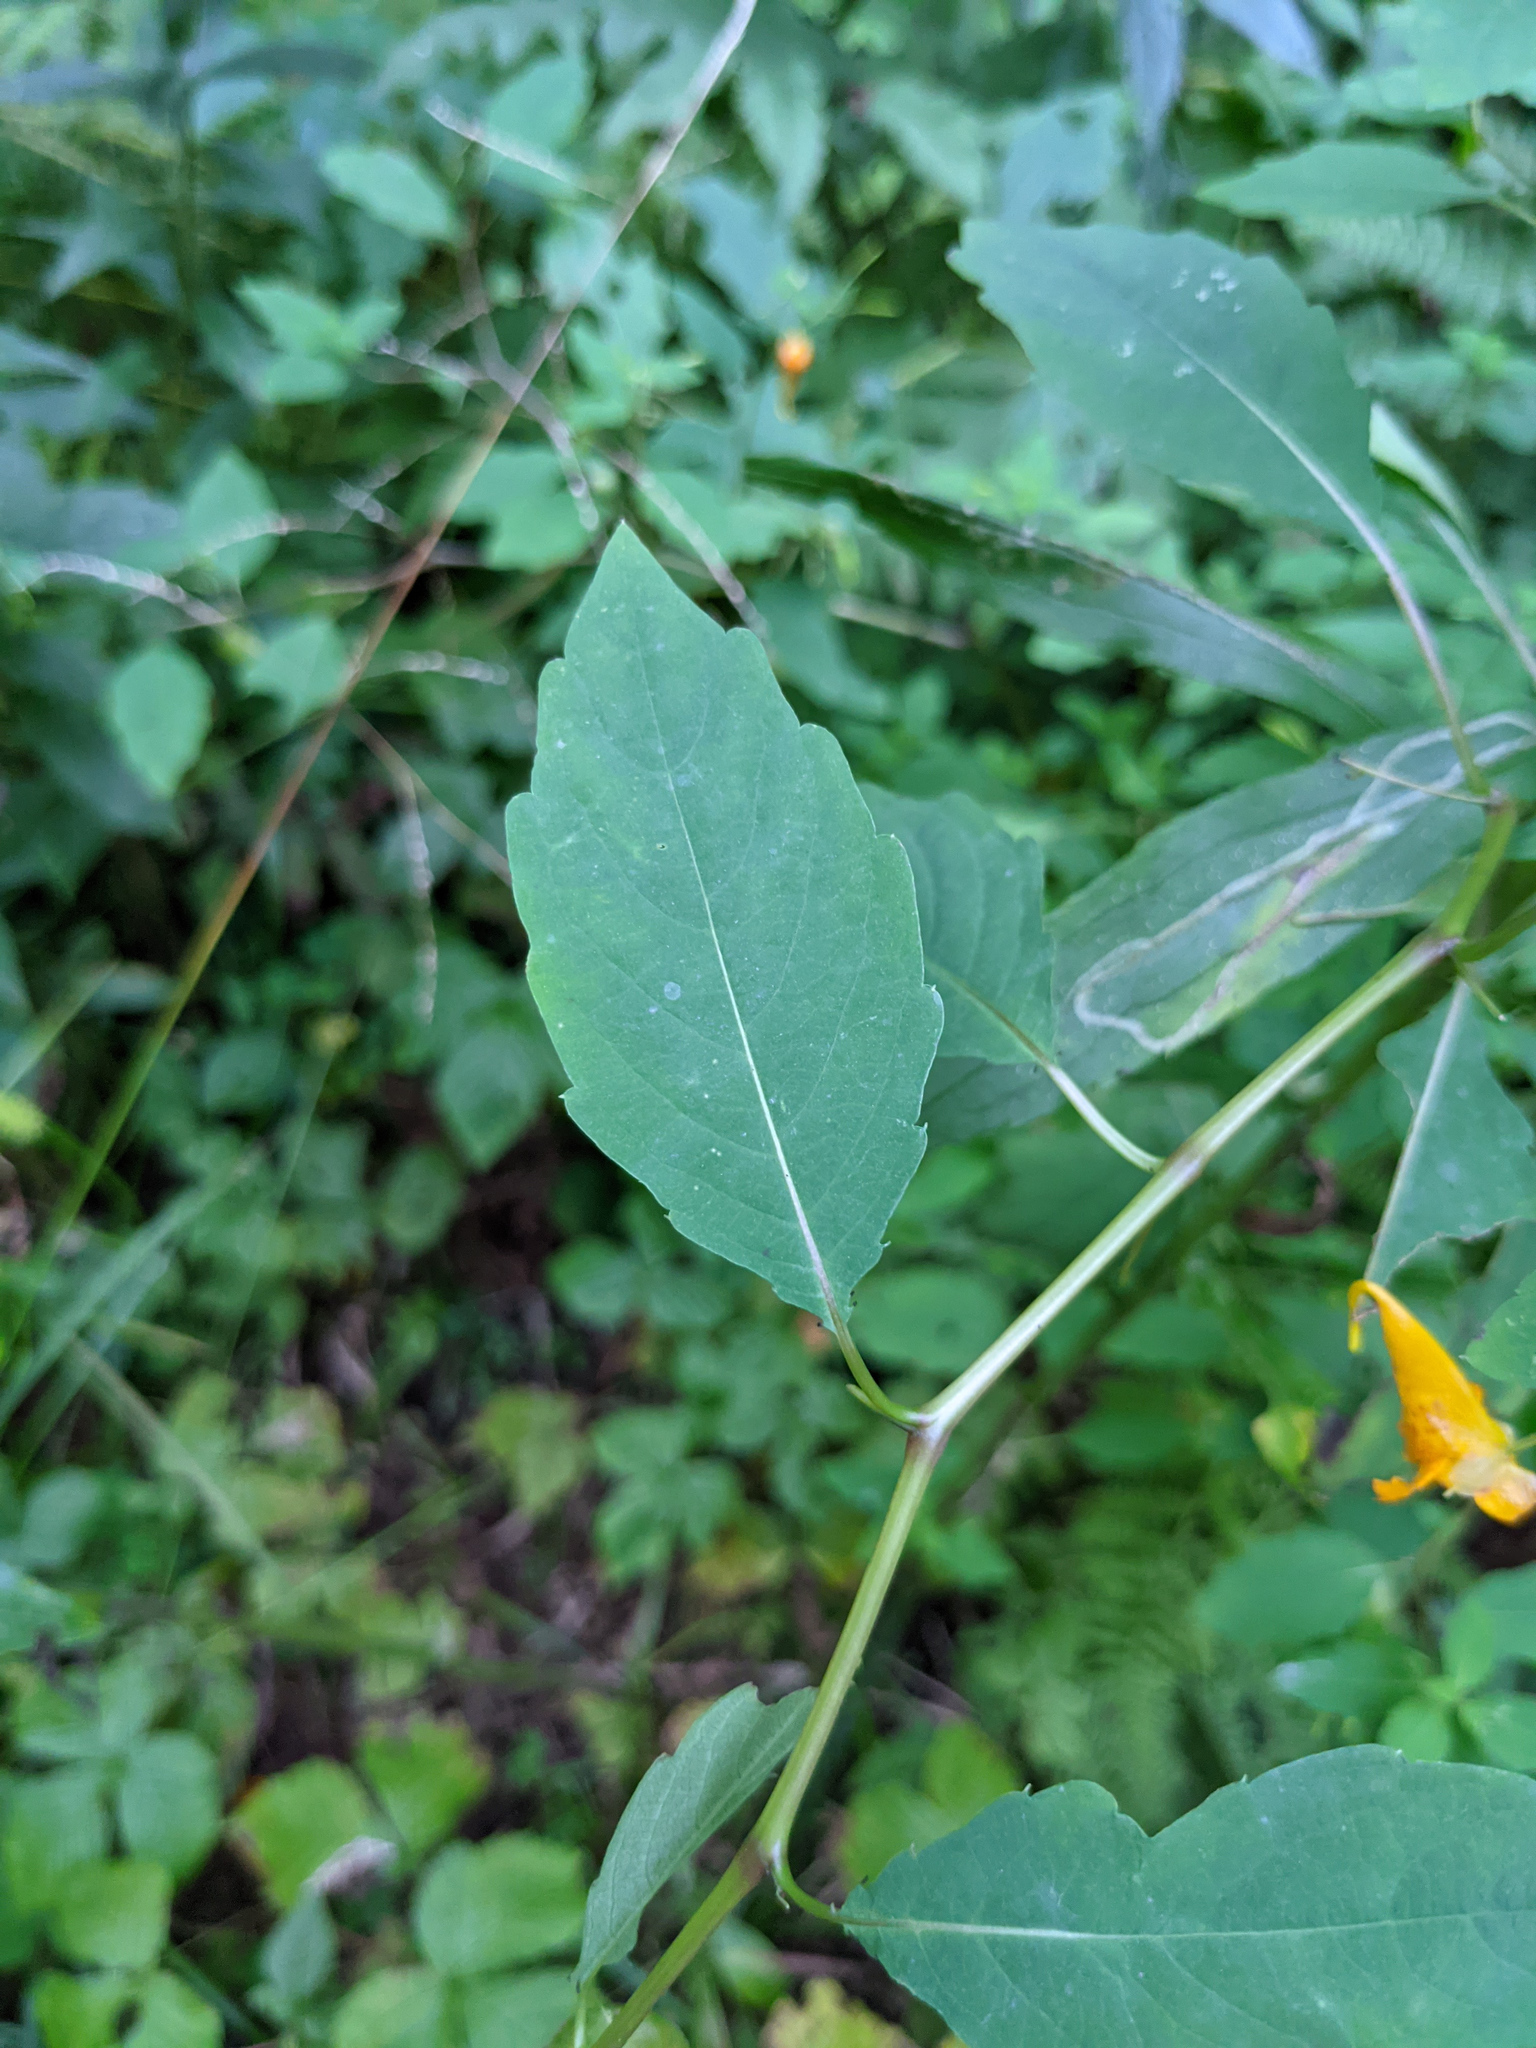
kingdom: Plantae
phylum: Tracheophyta
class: Magnoliopsida
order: Ericales
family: Balsaminaceae
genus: Impatiens
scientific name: Impatiens capensis
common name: Orange balsam
